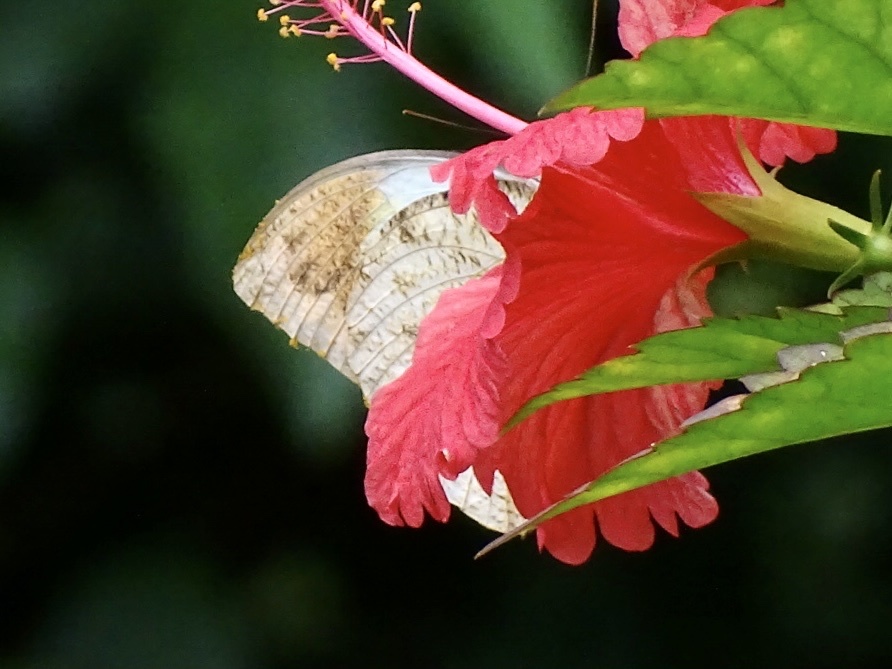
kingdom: Animalia
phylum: Arthropoda
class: Insecta
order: Lepidoptera
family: Pieridae
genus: Hebomoia
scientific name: Hebomoia glaucippe
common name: Great orange tip
